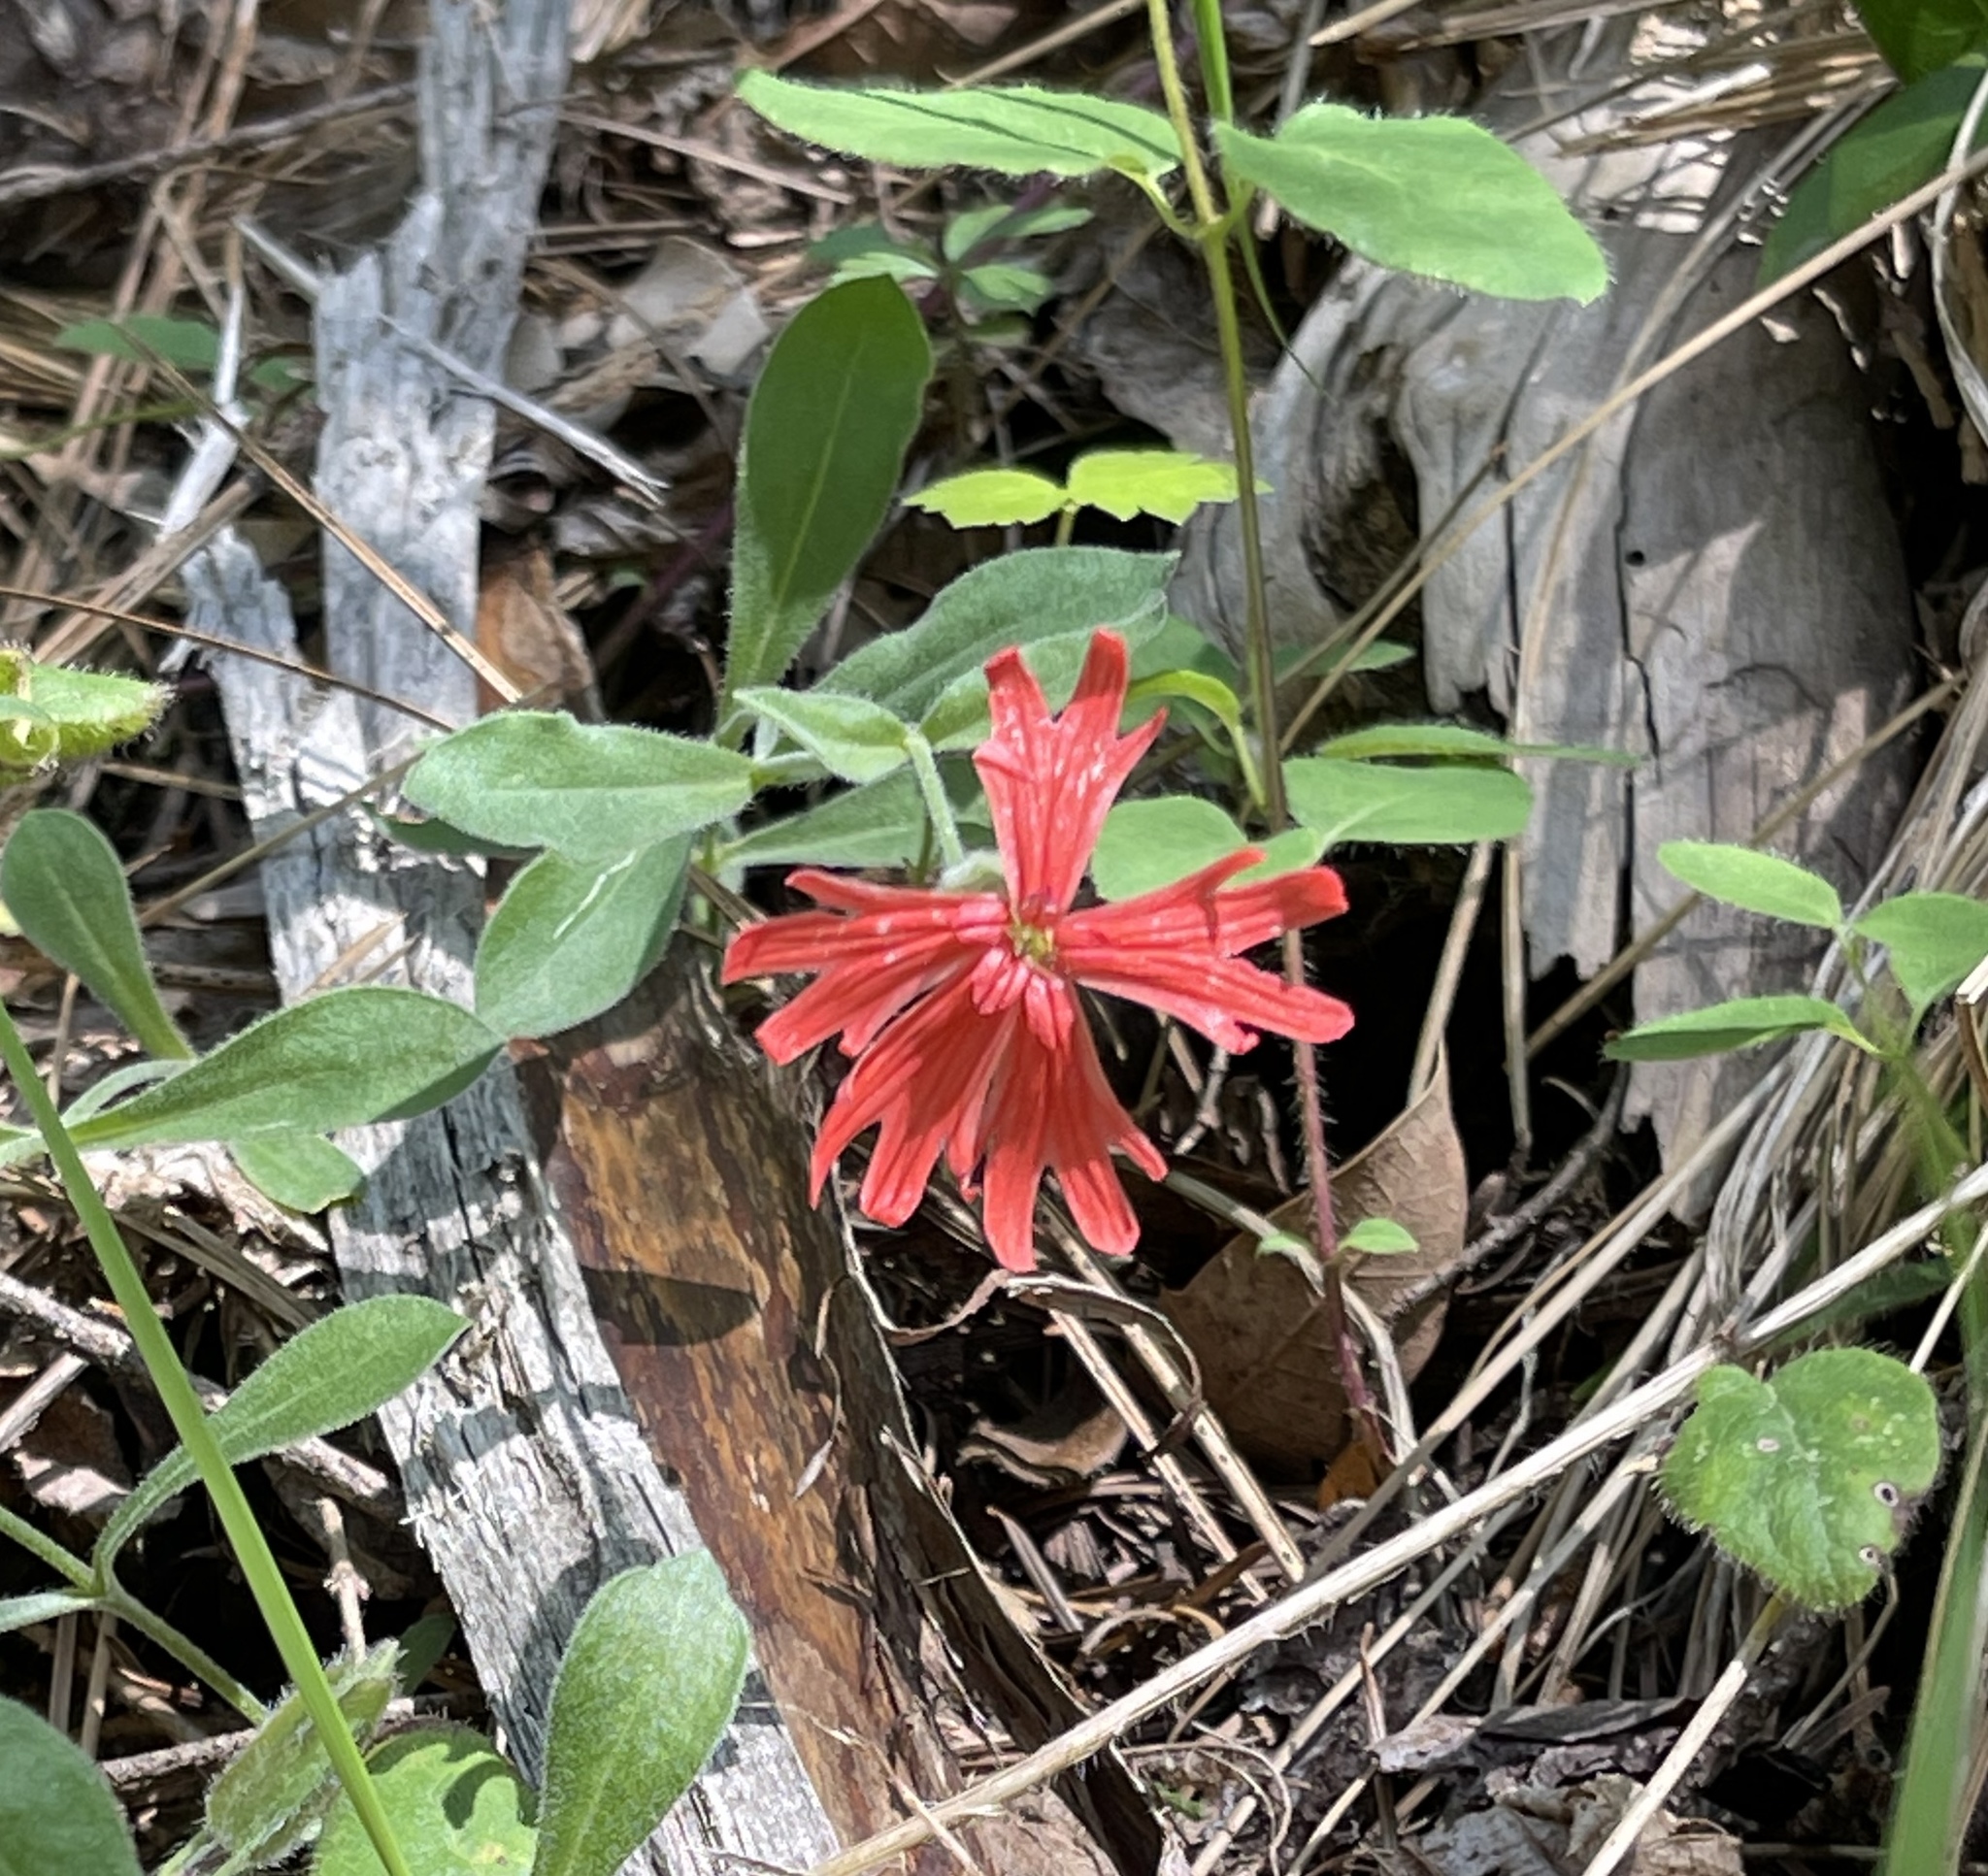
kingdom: Plantae
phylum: Tracheophyta
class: Magnoliopsida
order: Caryophyllales
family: Caryophyllaceae
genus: Silene
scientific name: Silene laciniata
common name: Indian-pink
